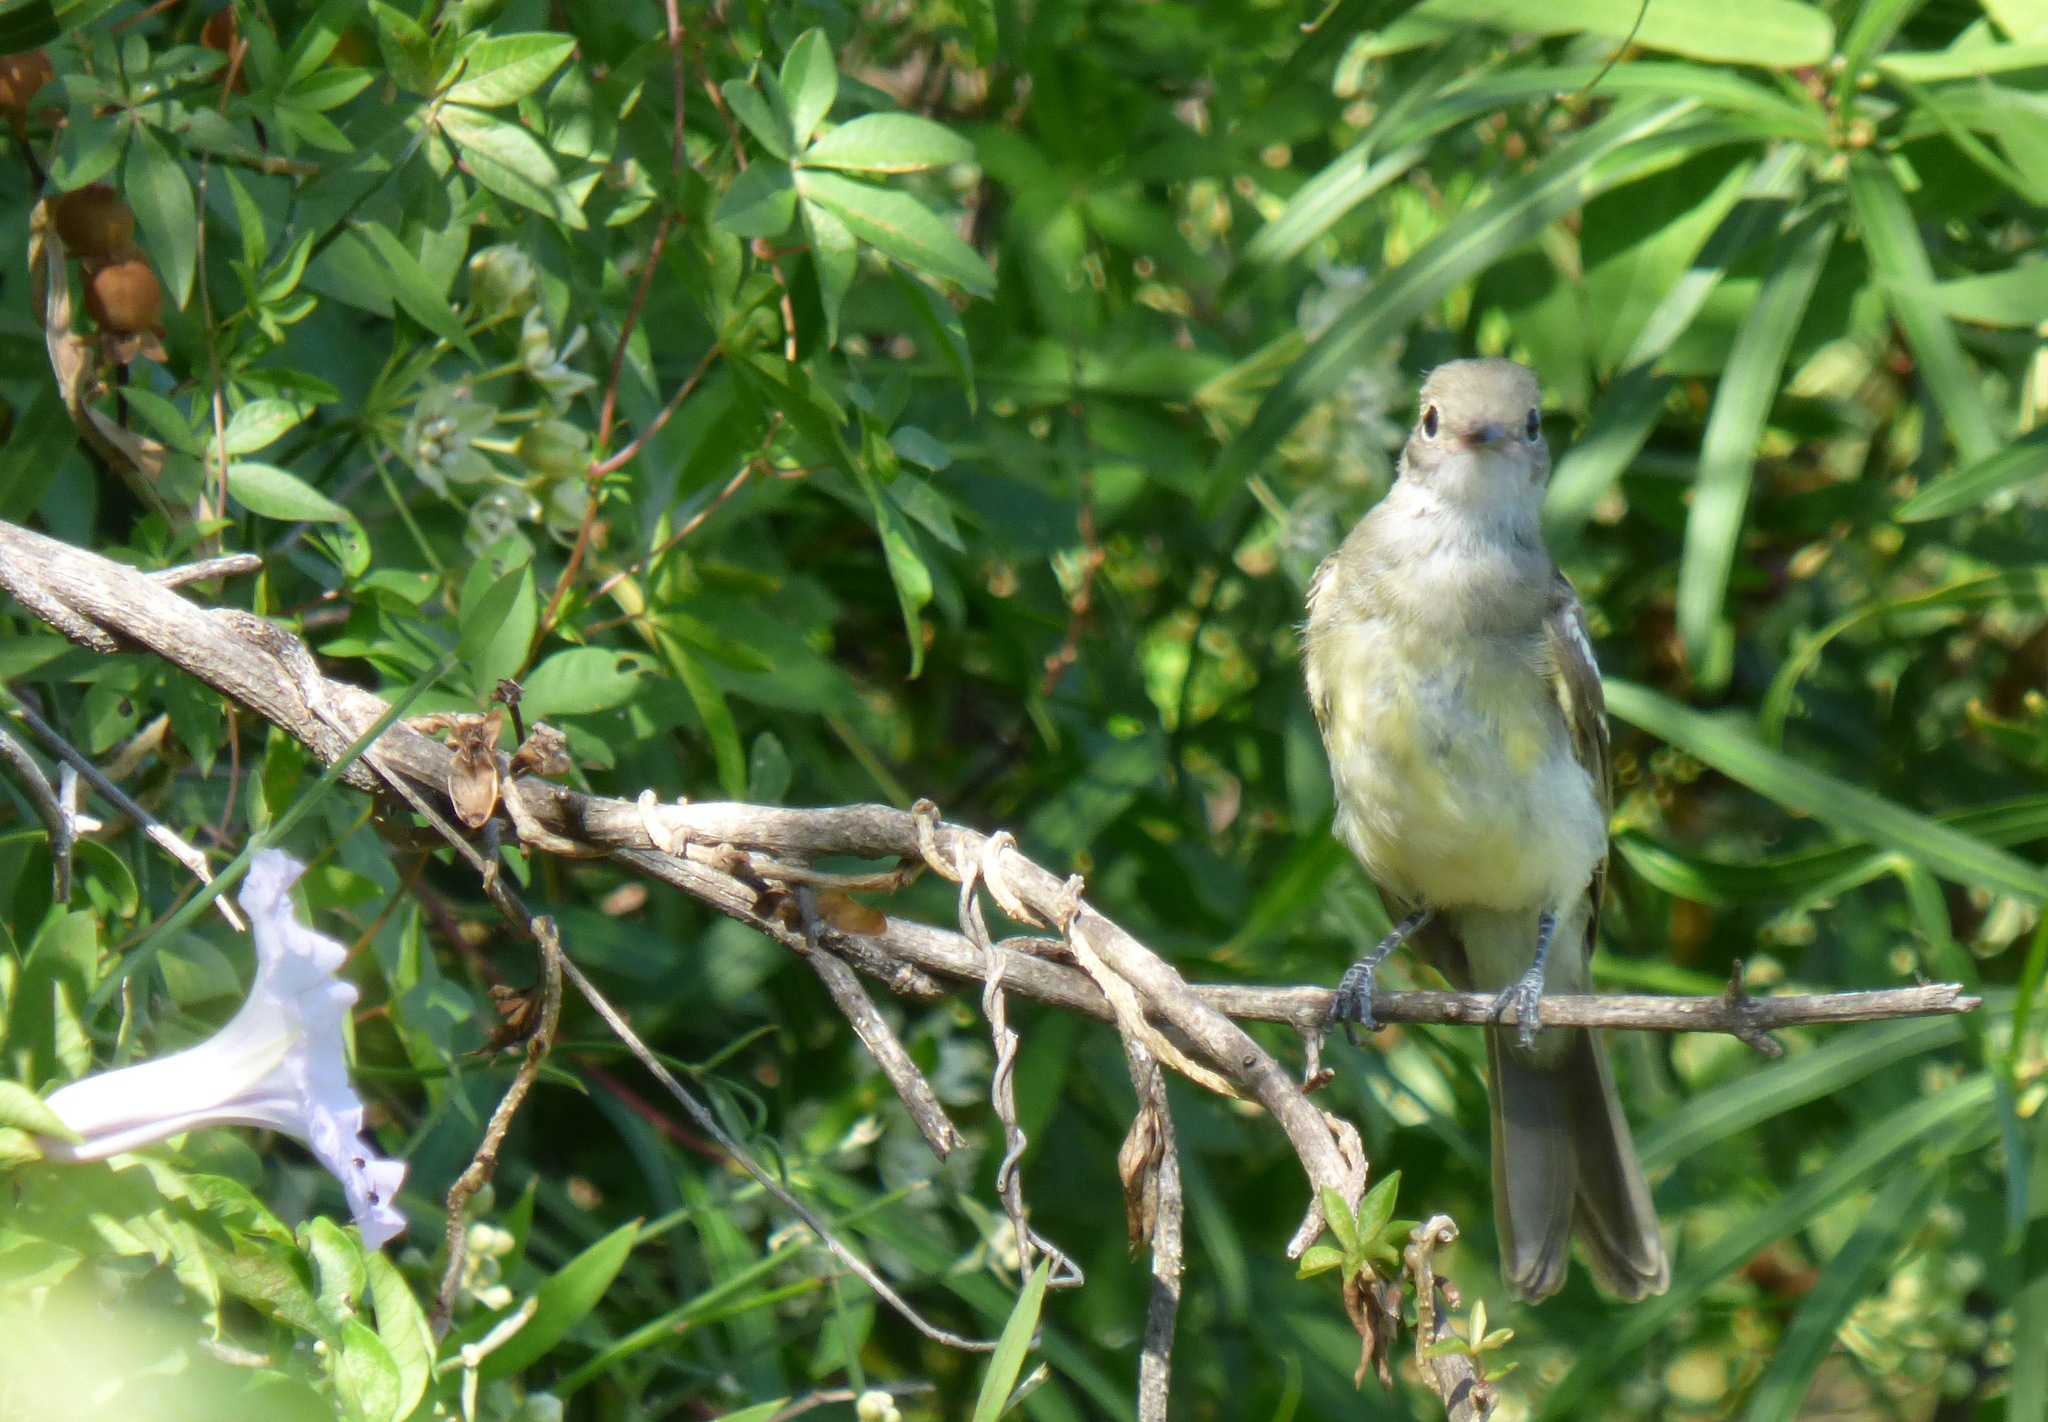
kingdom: Animalia
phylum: Chordata
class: Aves
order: Passeriformes
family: Tyrannidae
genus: Elaenia
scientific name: Elaenia spectabilis
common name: Large elaenia
